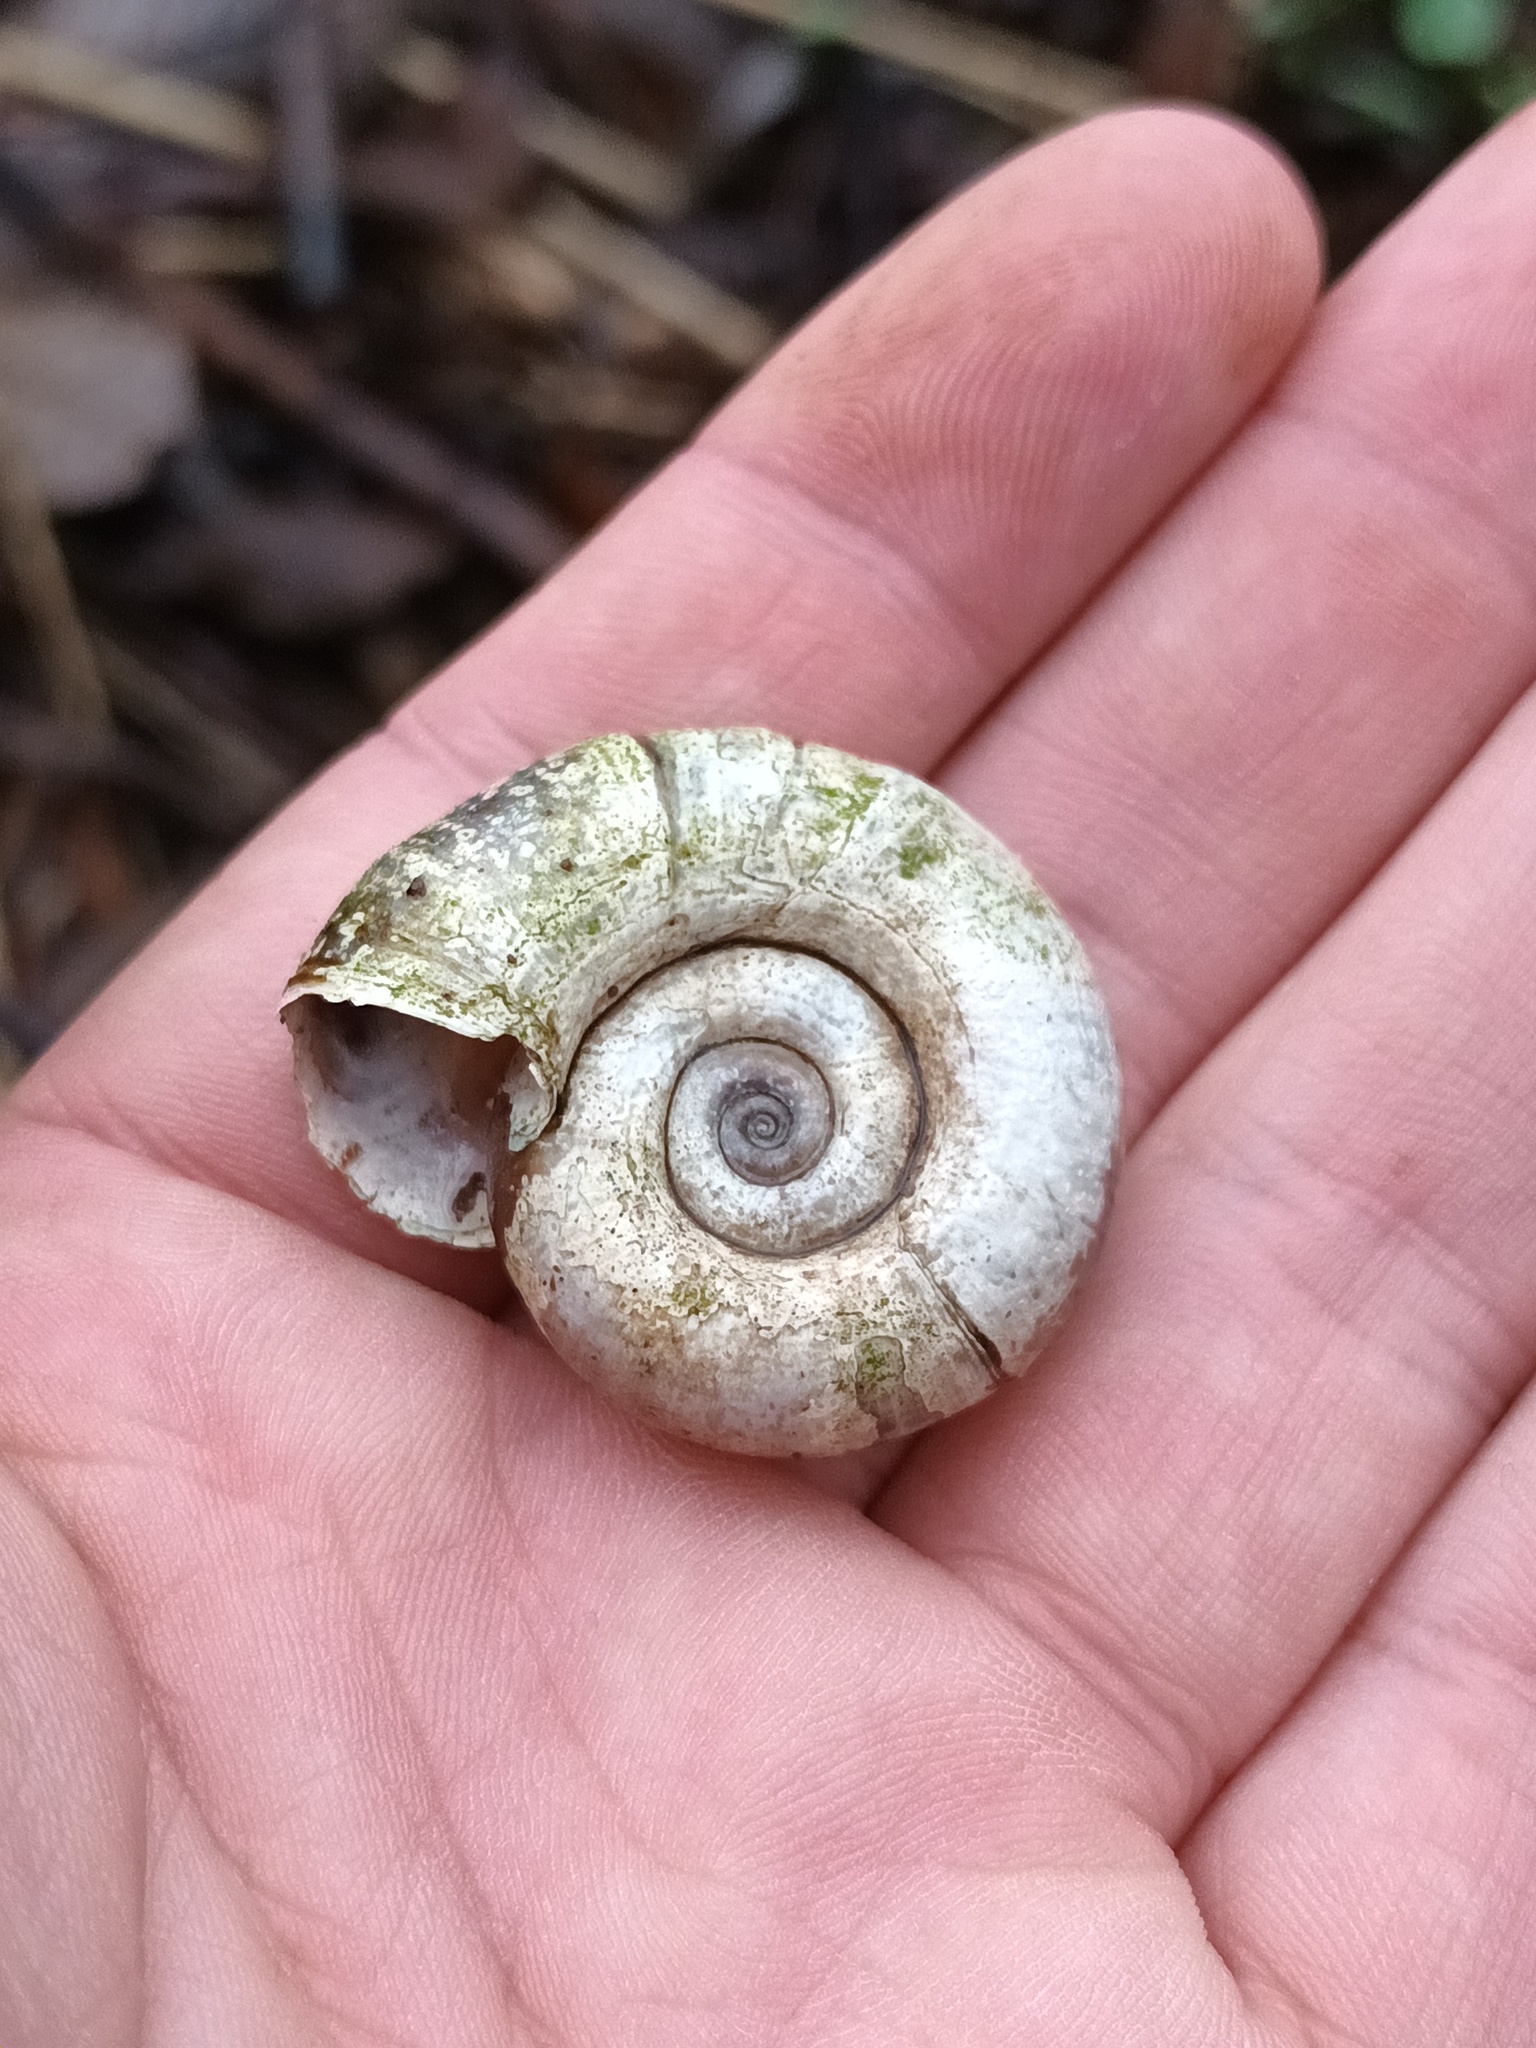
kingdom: Animalia
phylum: Mollusca
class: Gastropoda
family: Planorbidae
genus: Planorbarius
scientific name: Planorbarius corneus
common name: Great ramshorn
